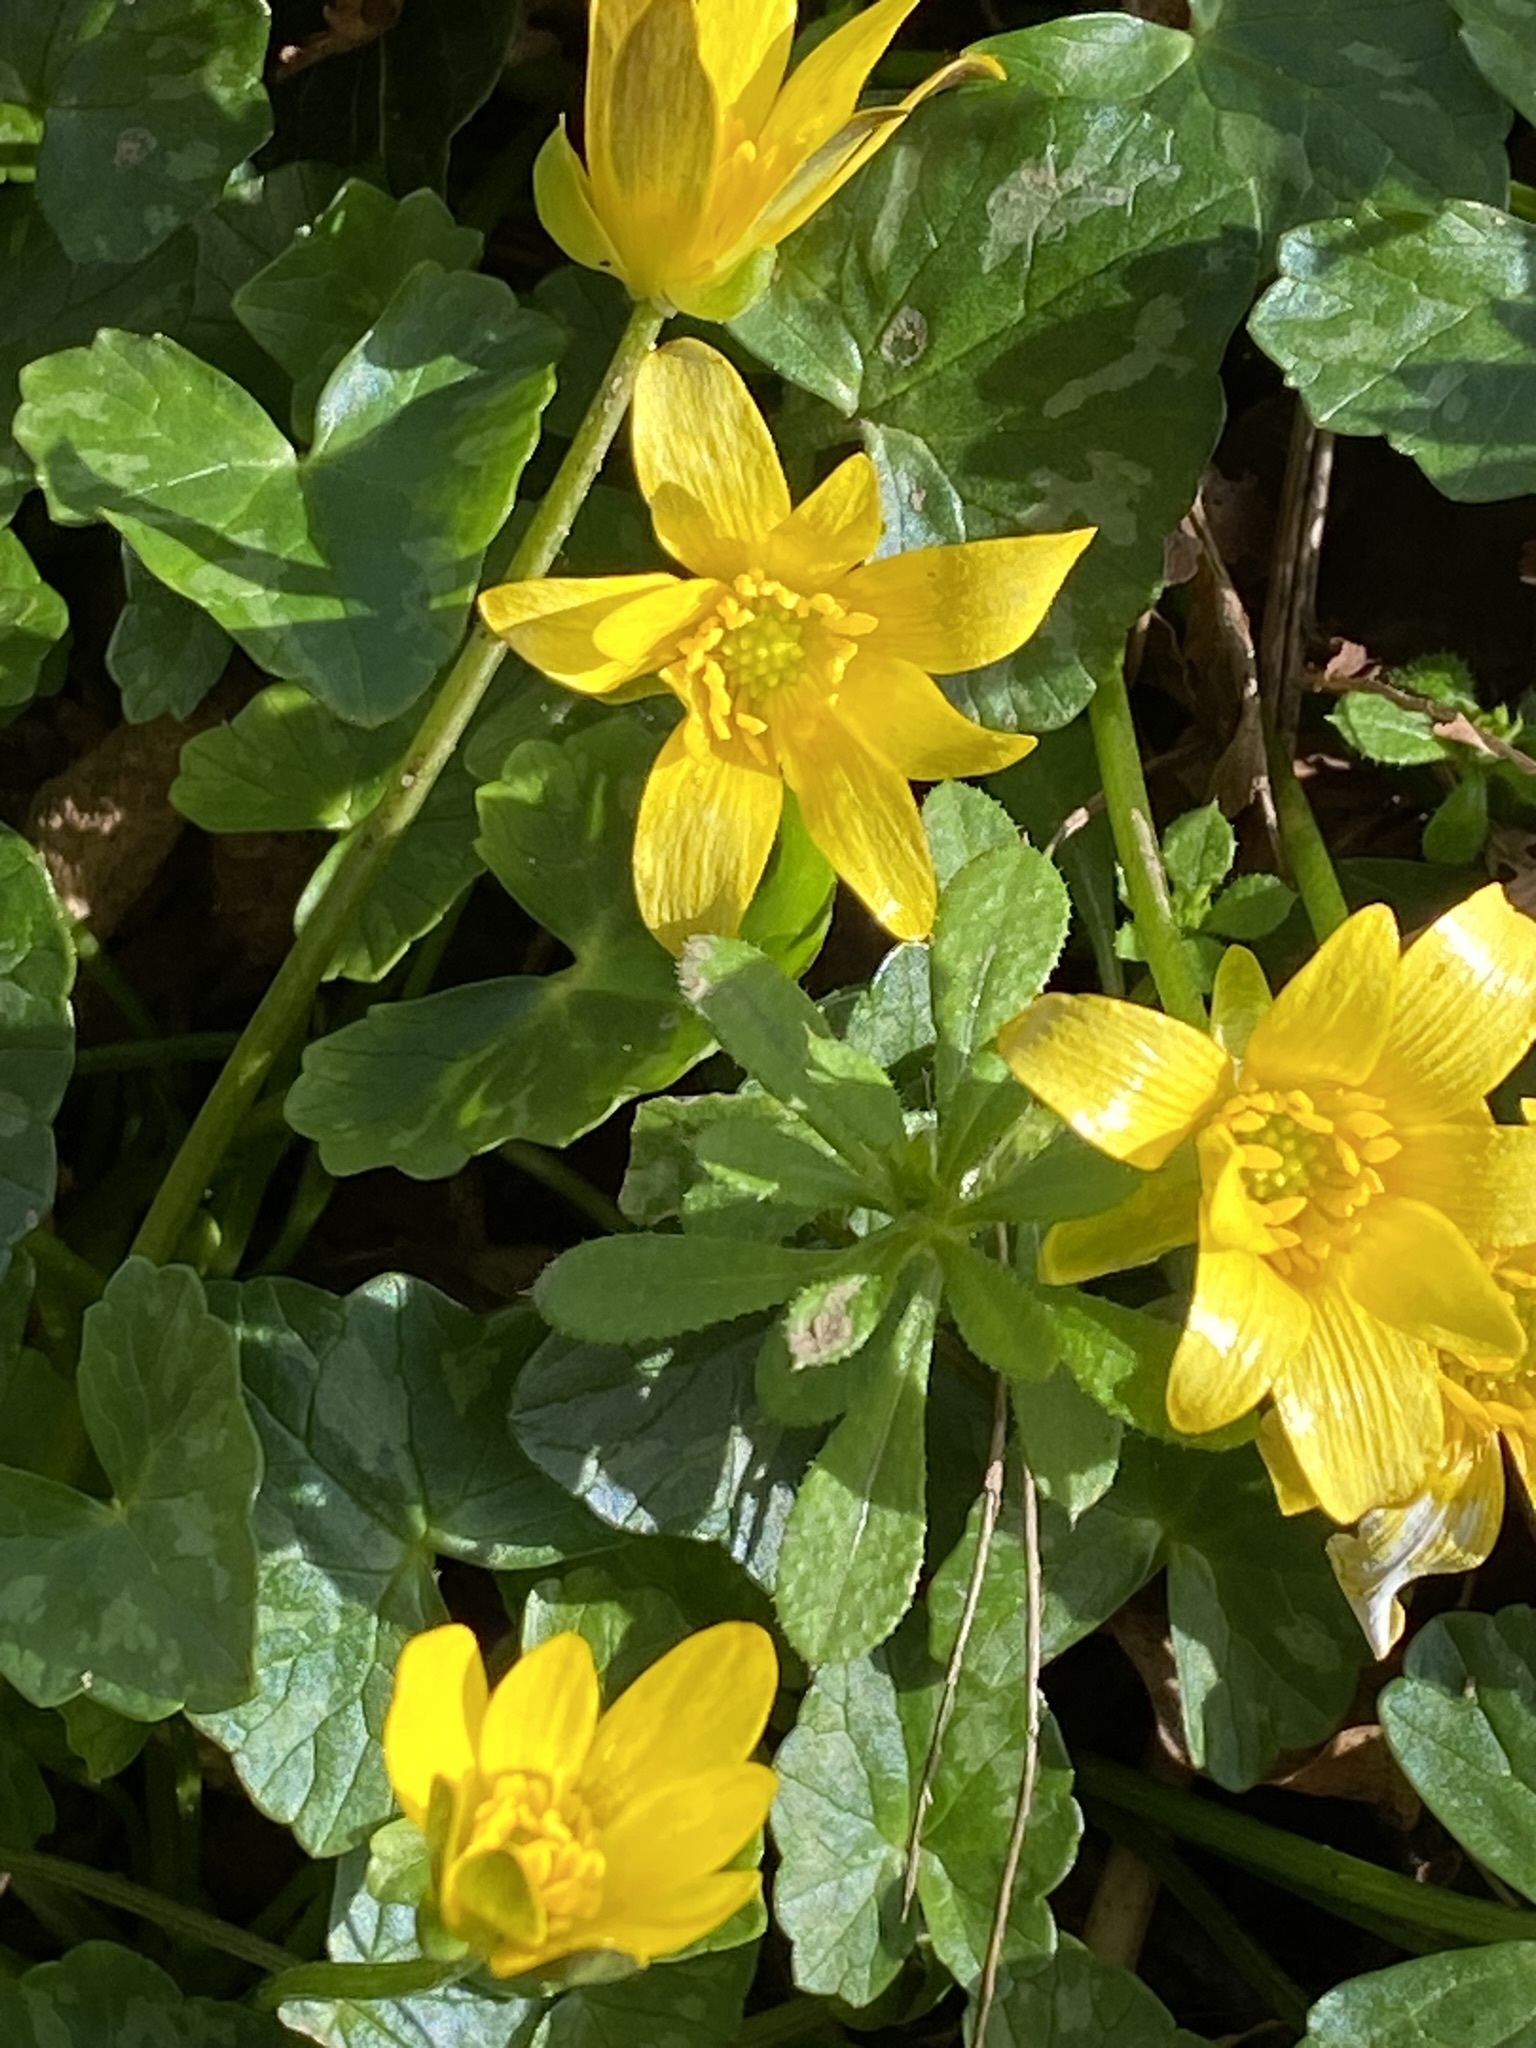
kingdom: Plantae
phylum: Tracheophyta
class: Magnoliopsida
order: Ranunculales
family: Ranunculaceae
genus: Ficaria
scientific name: Ficaria verna
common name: Lesser celandine
